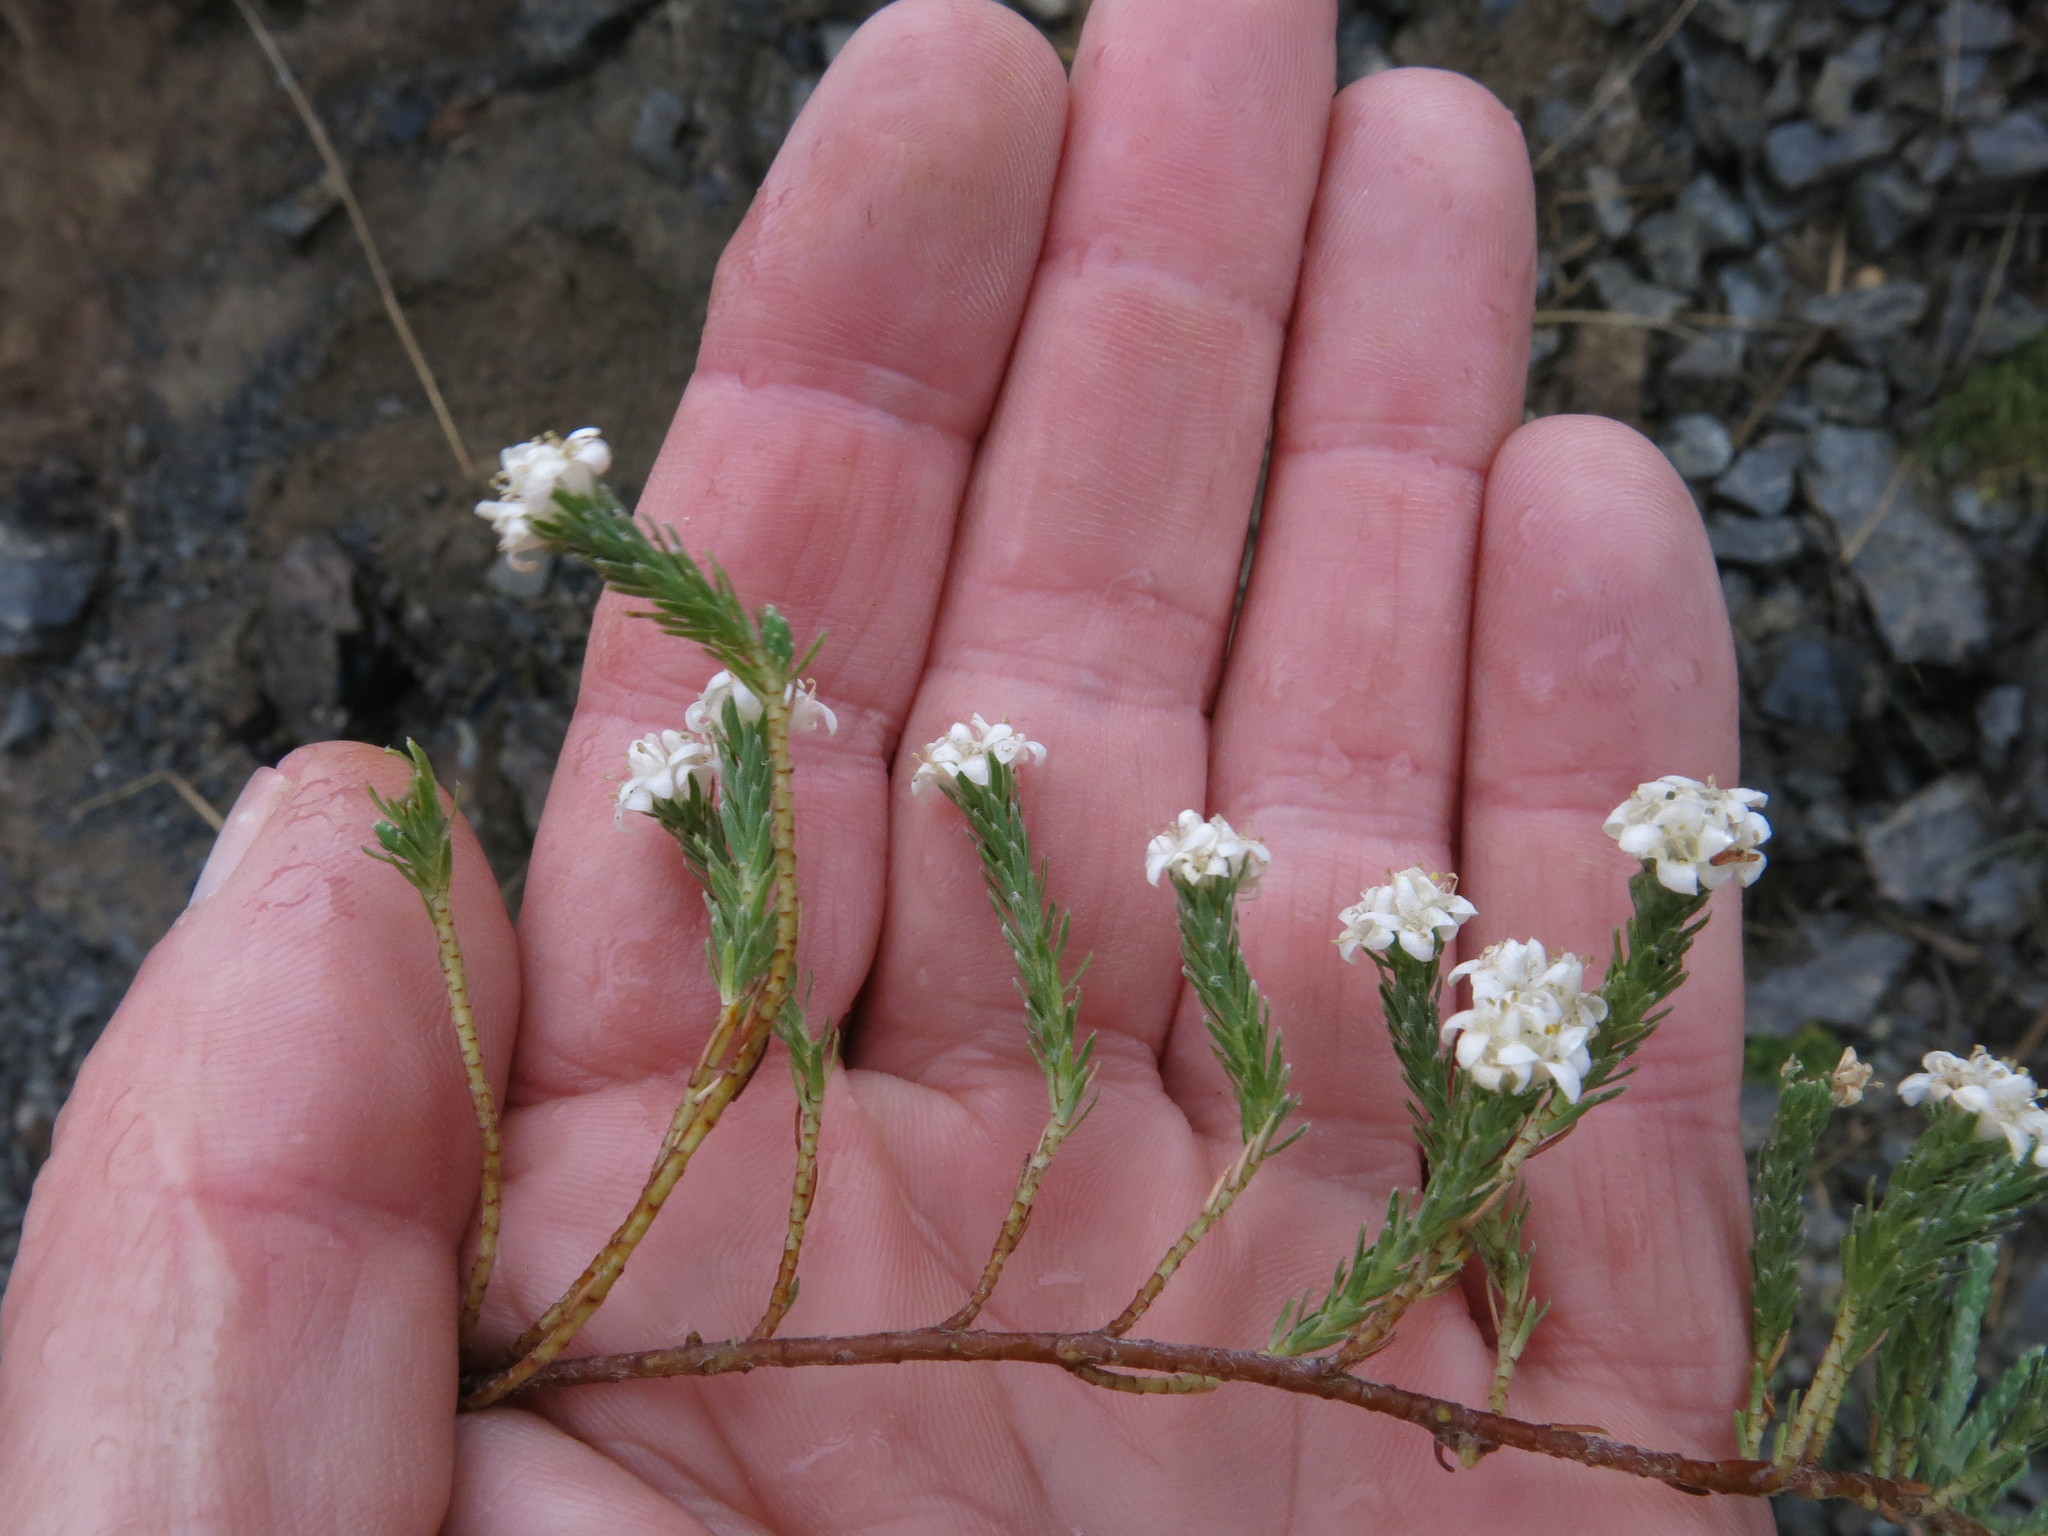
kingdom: Plantae
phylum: Tracheophyta
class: Magnoliopsida
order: Malvales
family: Thymelaeaceae
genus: Kelleria
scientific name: Kelleria multiflora
